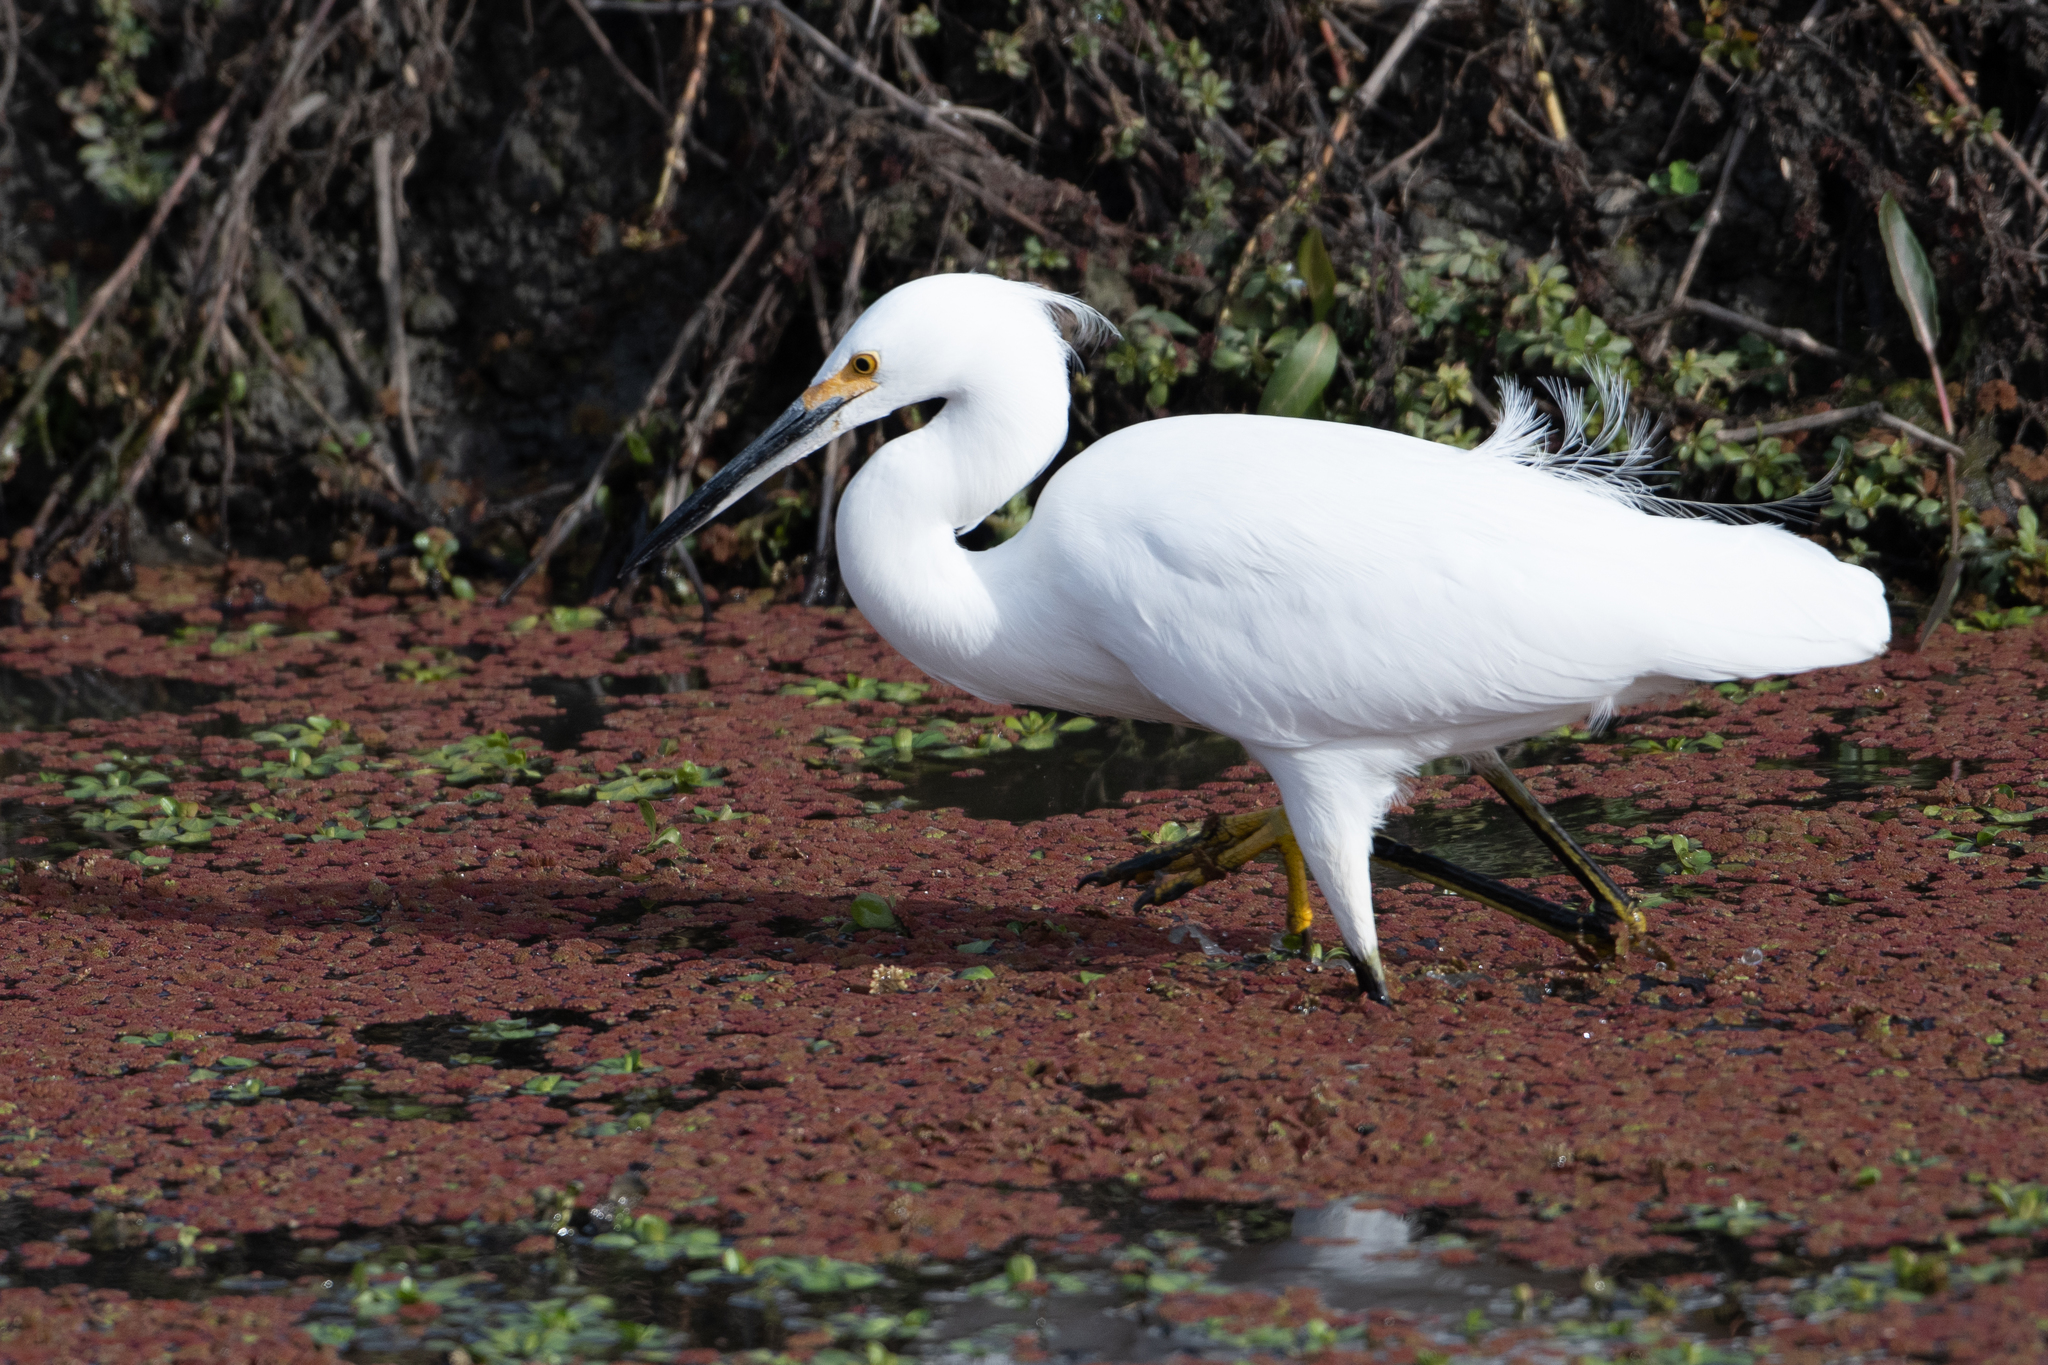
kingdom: Animalia
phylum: Chordata
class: Aves
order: Pelecaniformes
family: Ardeidae
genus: Egretta
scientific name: Egretta thula
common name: Snowy egret
